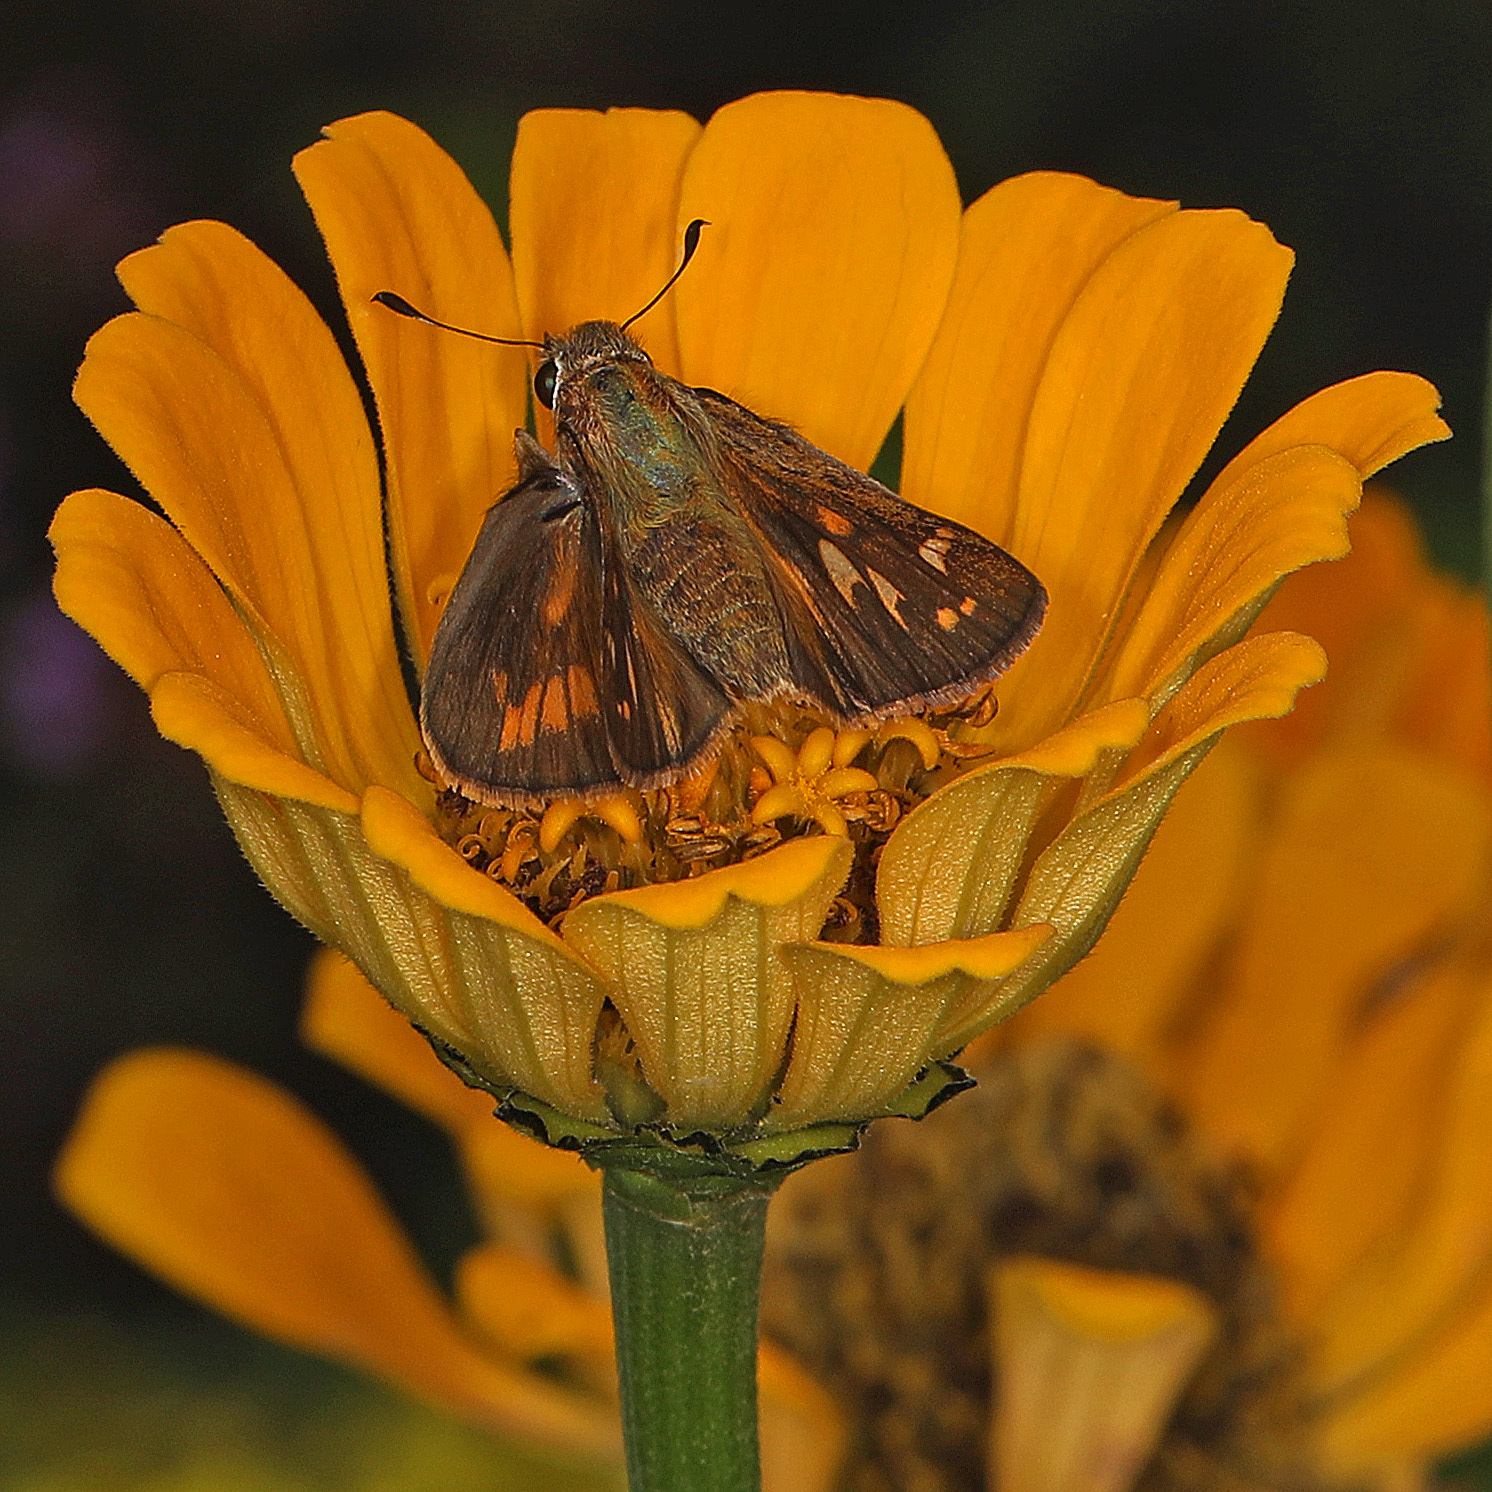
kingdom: Animalia
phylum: Arthropoda
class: Insecta
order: Lepidoptera
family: Hesperiidae
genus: Atalopedes
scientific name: Atalopedes
